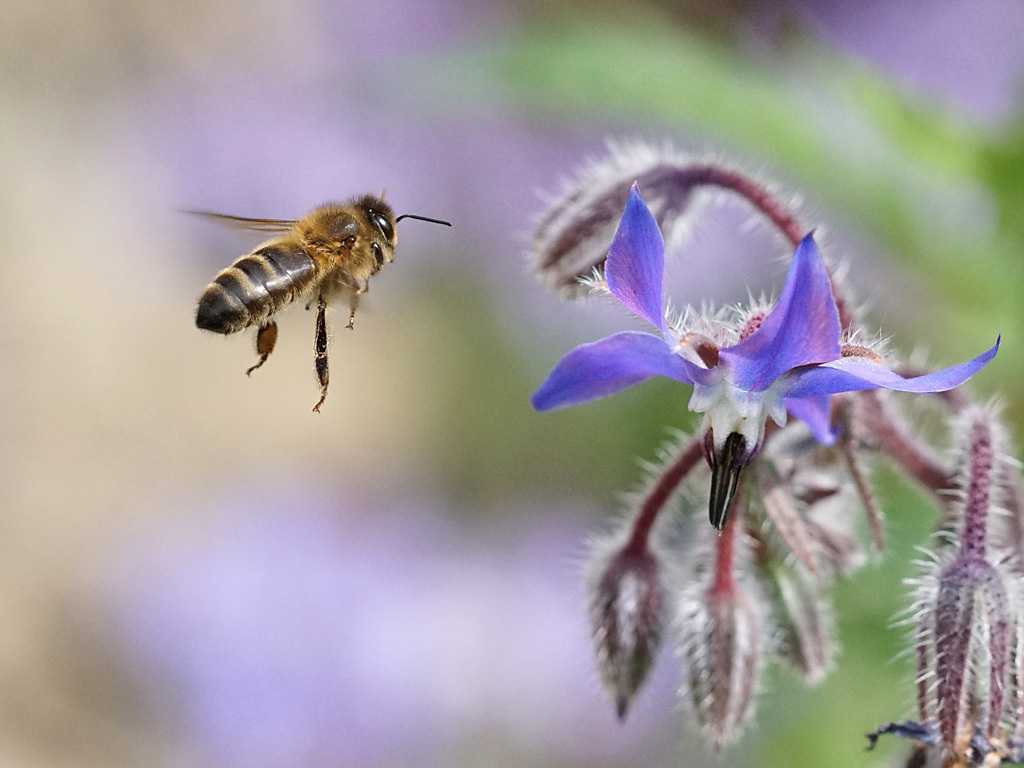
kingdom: Animalia
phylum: Arthropoda
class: Insecta
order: Hymenoptera
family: Apidae
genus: Apis
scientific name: Apis mellifera
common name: Honey bee
